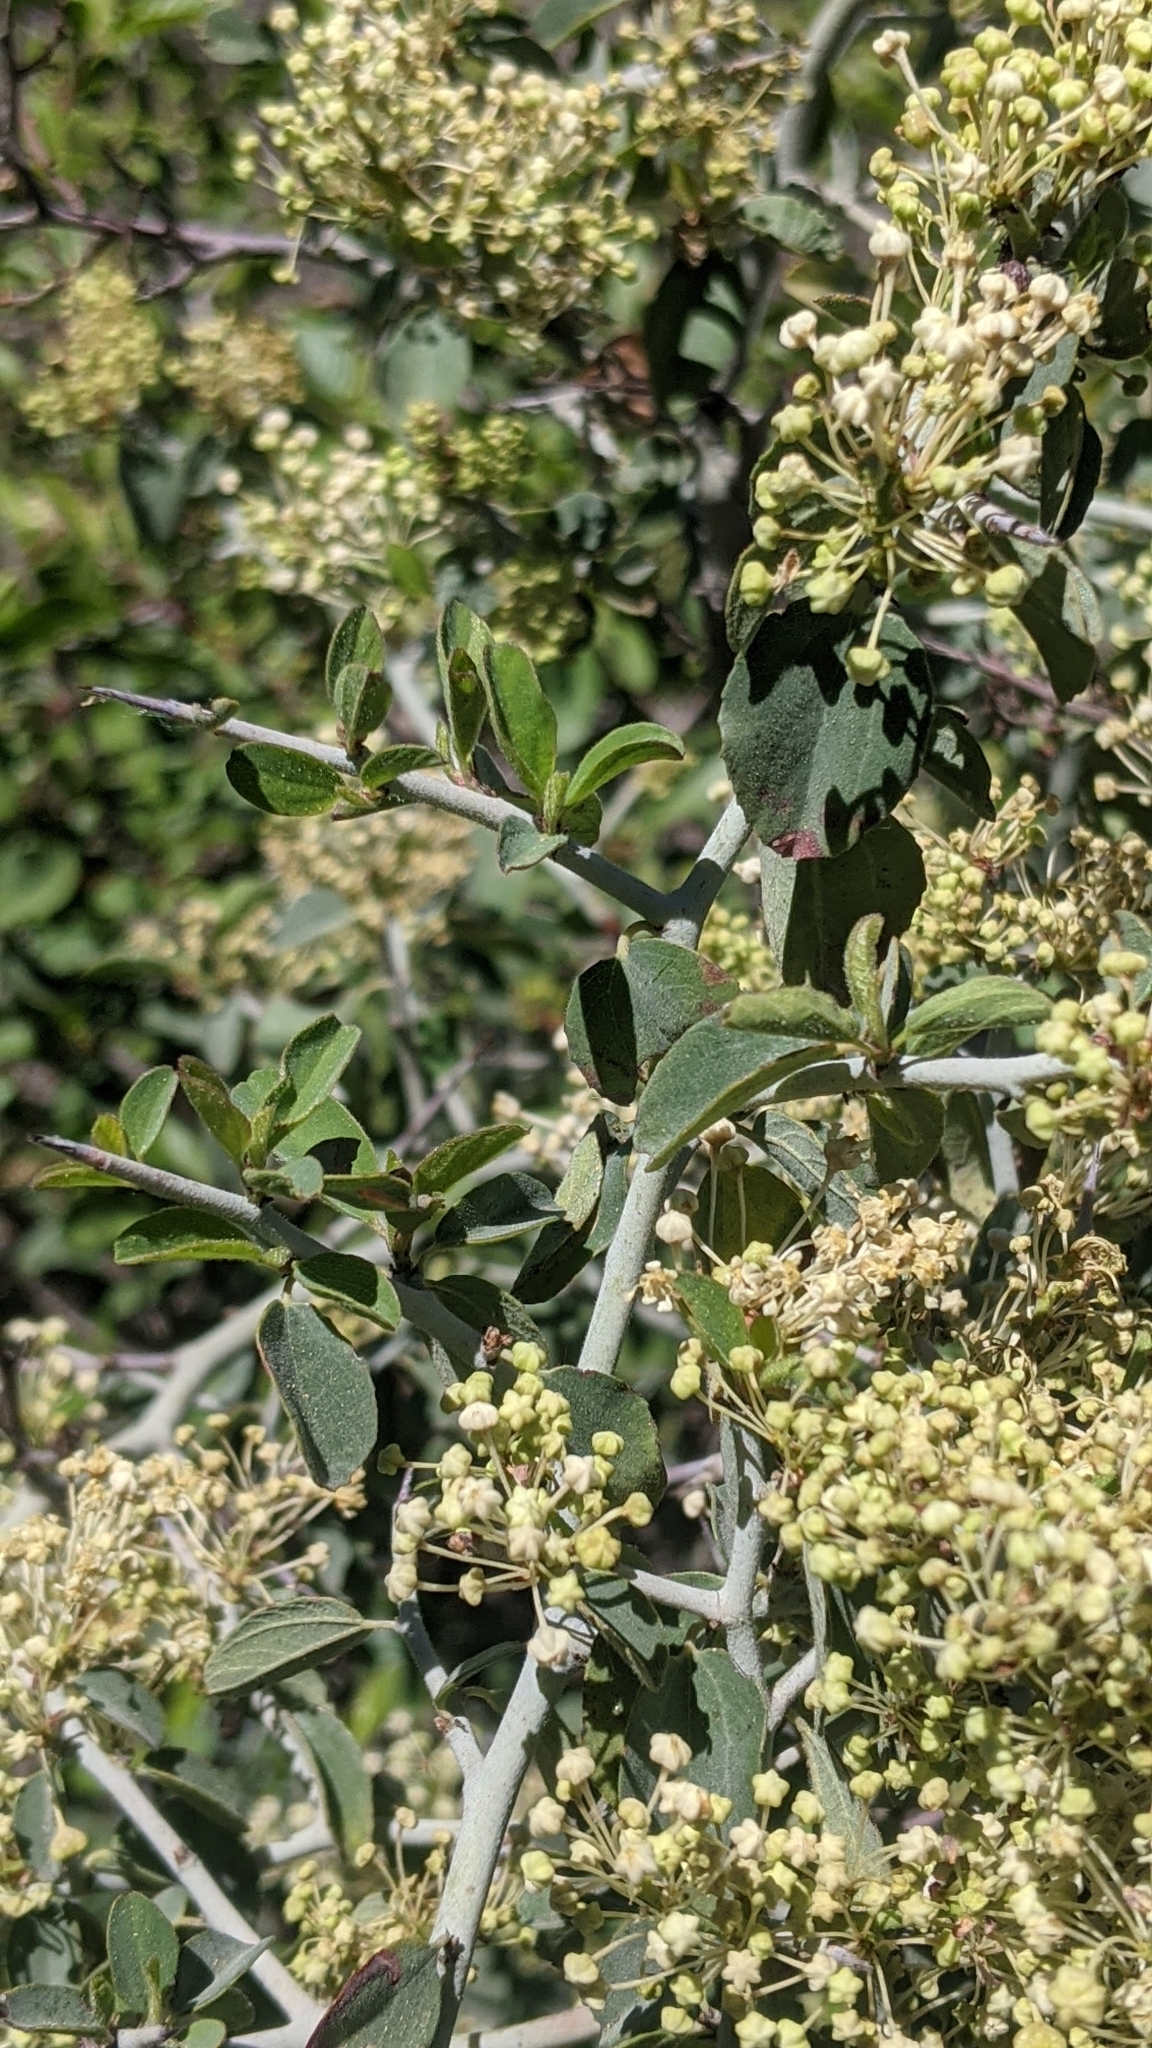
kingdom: Plantae
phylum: Tracheophyta
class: Magnoliopsida
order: Rosales
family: Rhamnaceae
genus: Ceanothus
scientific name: Ceanothus cordulatus
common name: Mountain whitethorn
